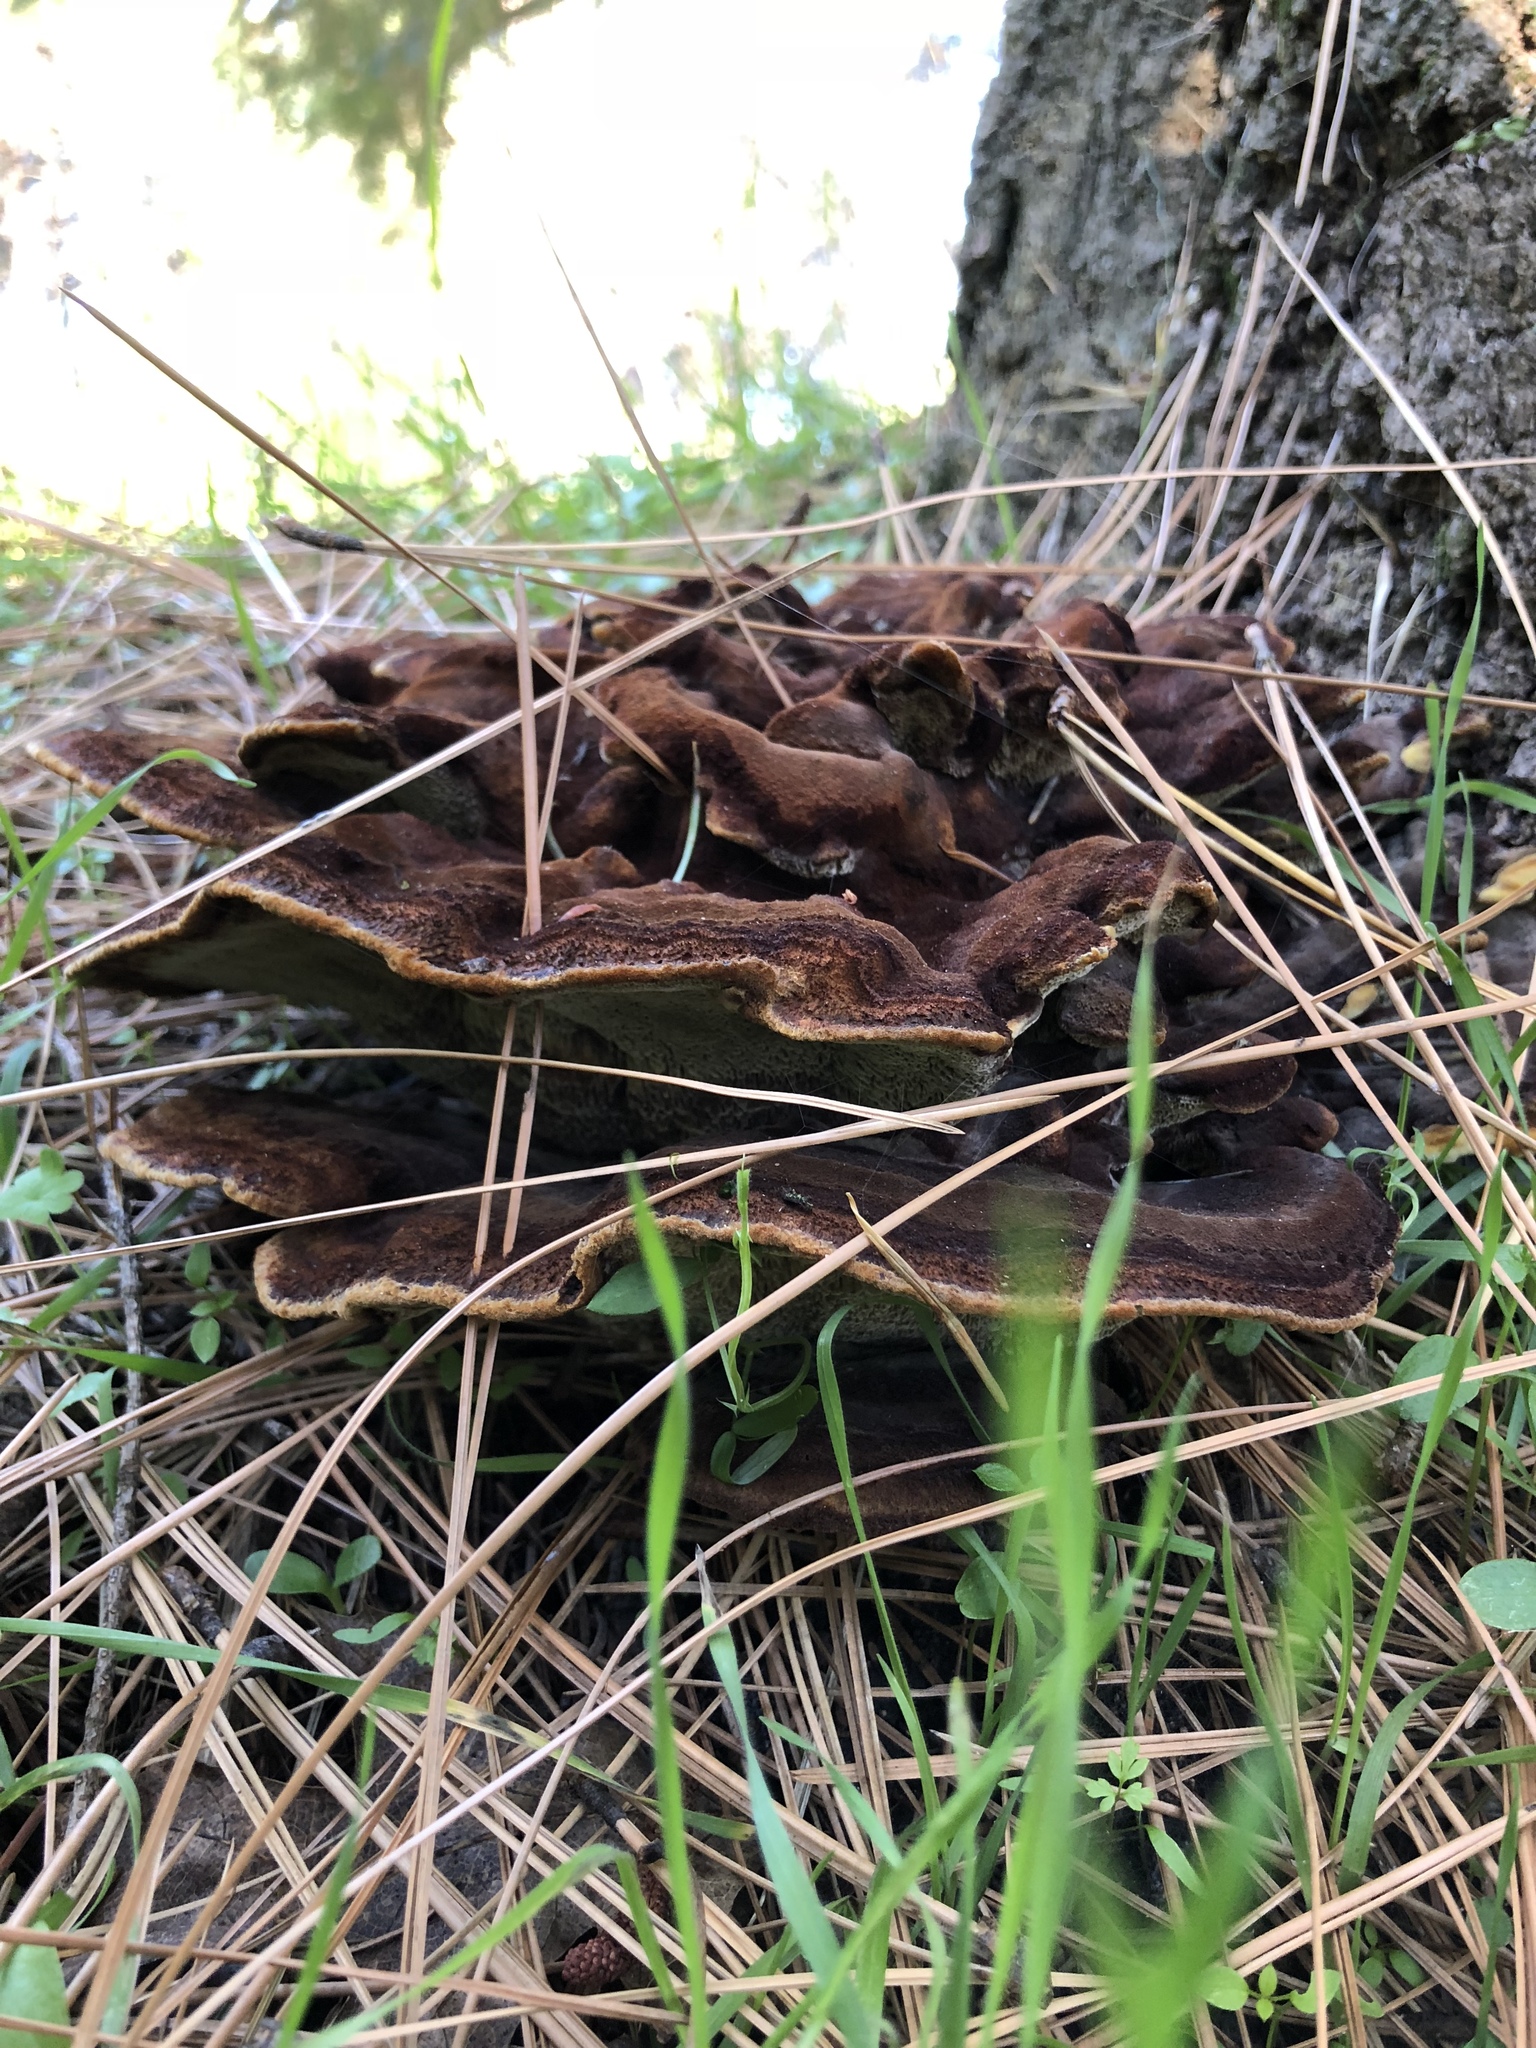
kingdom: Fungi
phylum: Basidiomycota
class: Agaricomycetes
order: Polyporales
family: Laetiporaceae
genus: Phaeolus
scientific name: Phaeolus schweinitzii
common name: Dyer's mazegill
